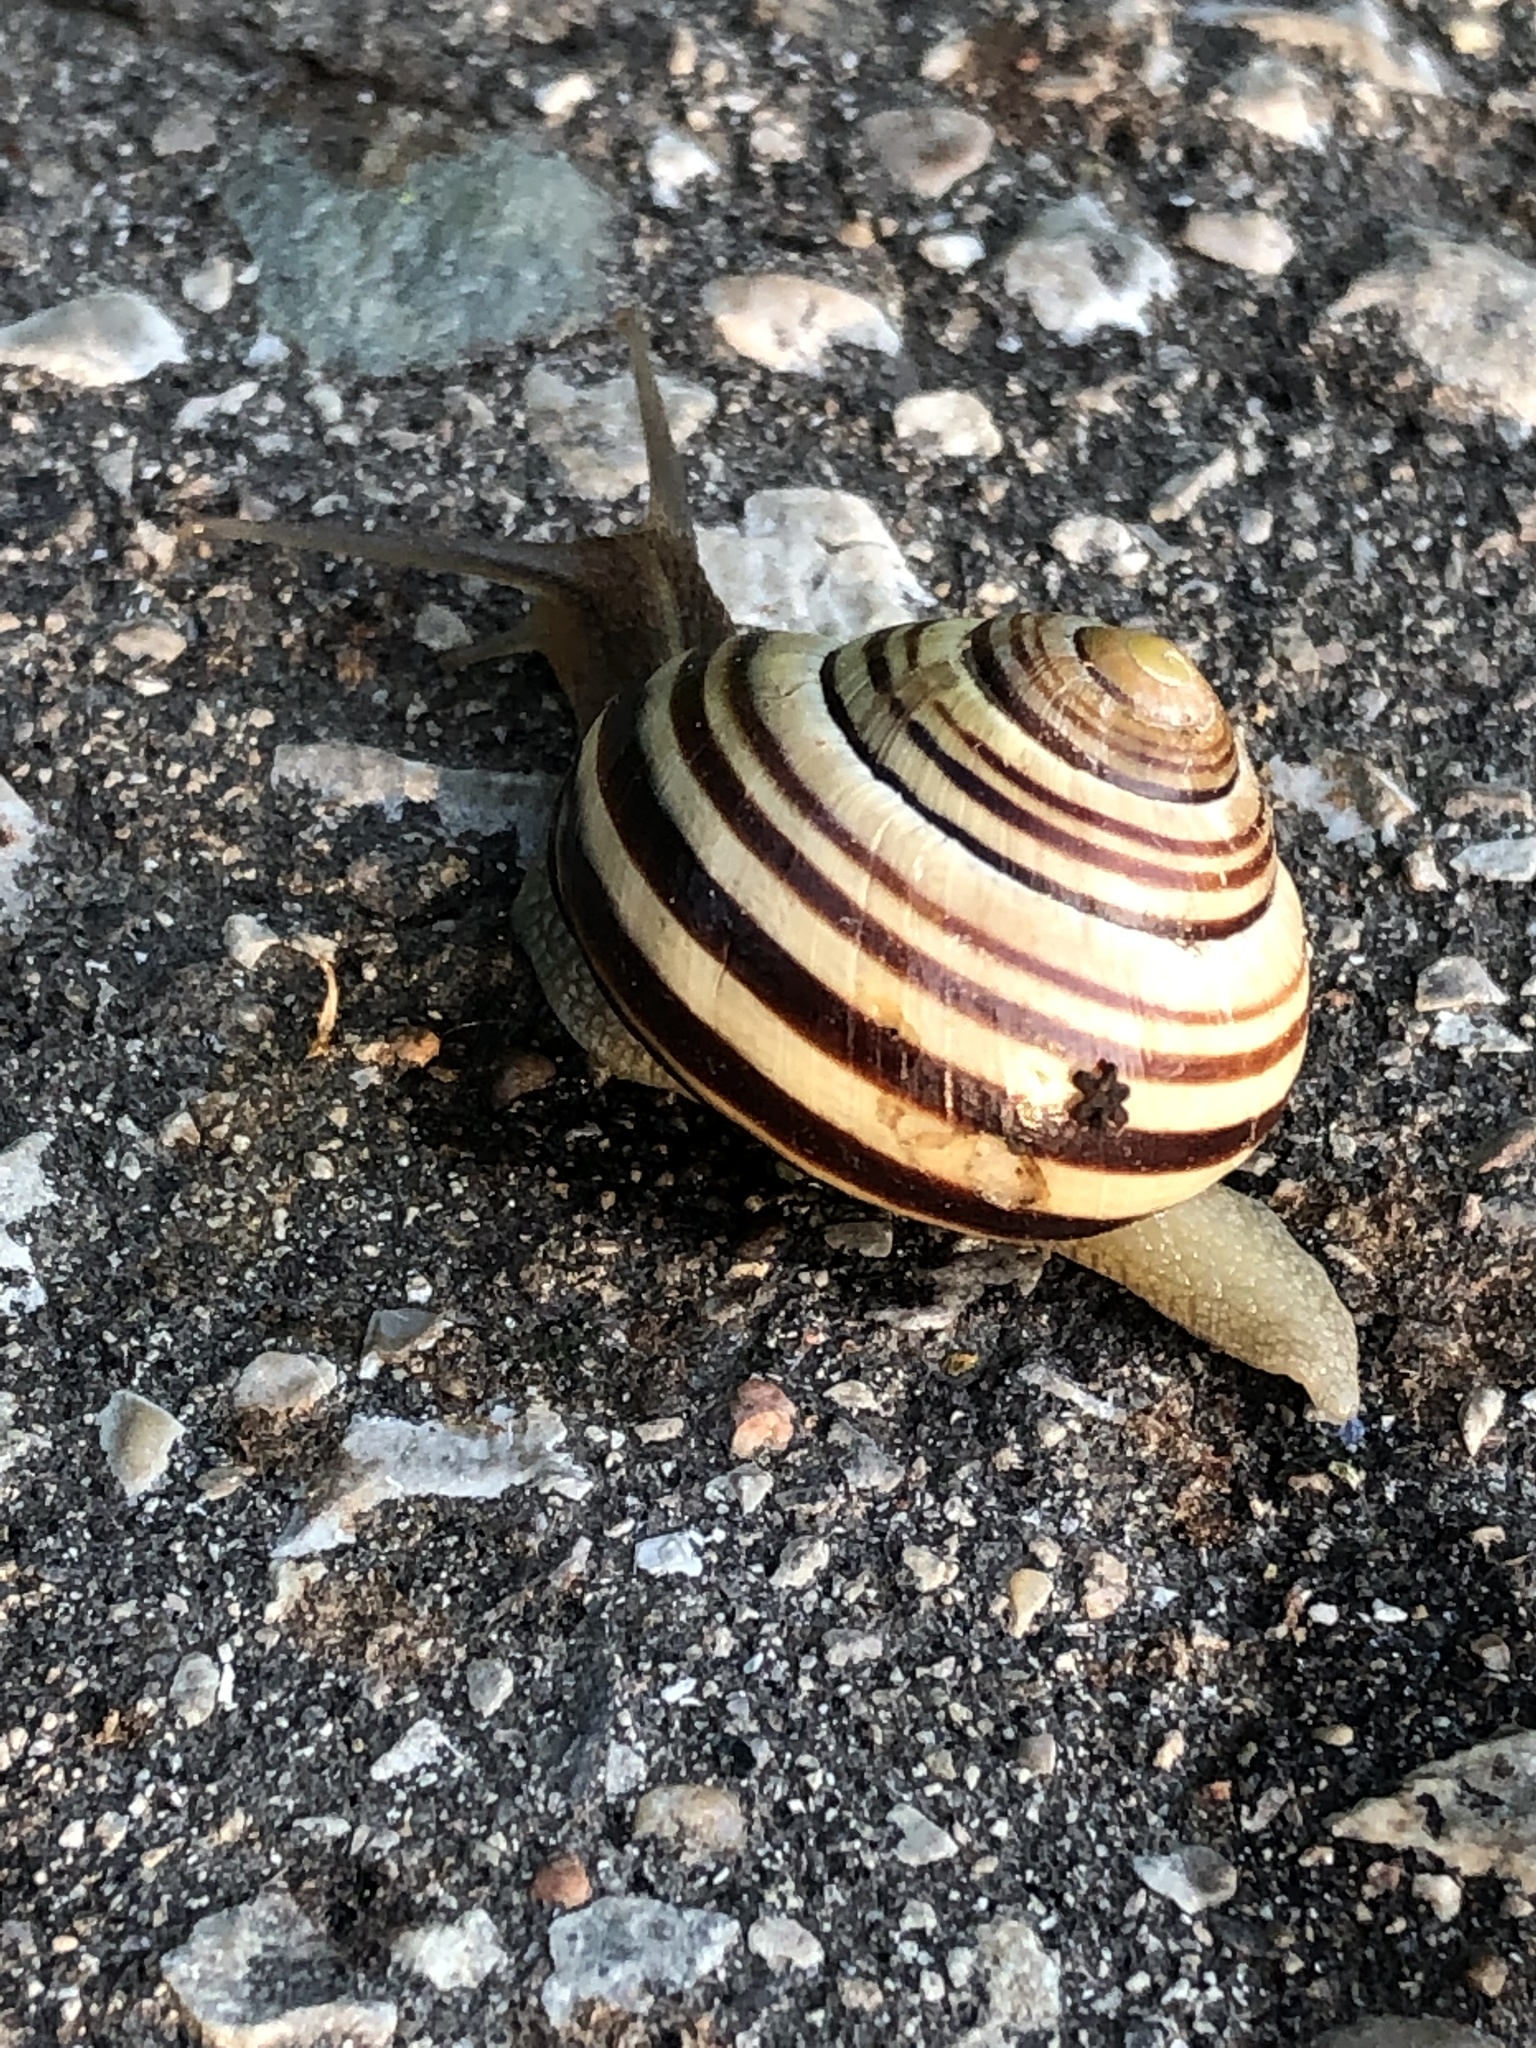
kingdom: Animalia
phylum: Mollusca
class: Gastropoda
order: Stylommatophora
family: Helicidae
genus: Cepaea
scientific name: Cepaea nemoralis
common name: Grovesnail
